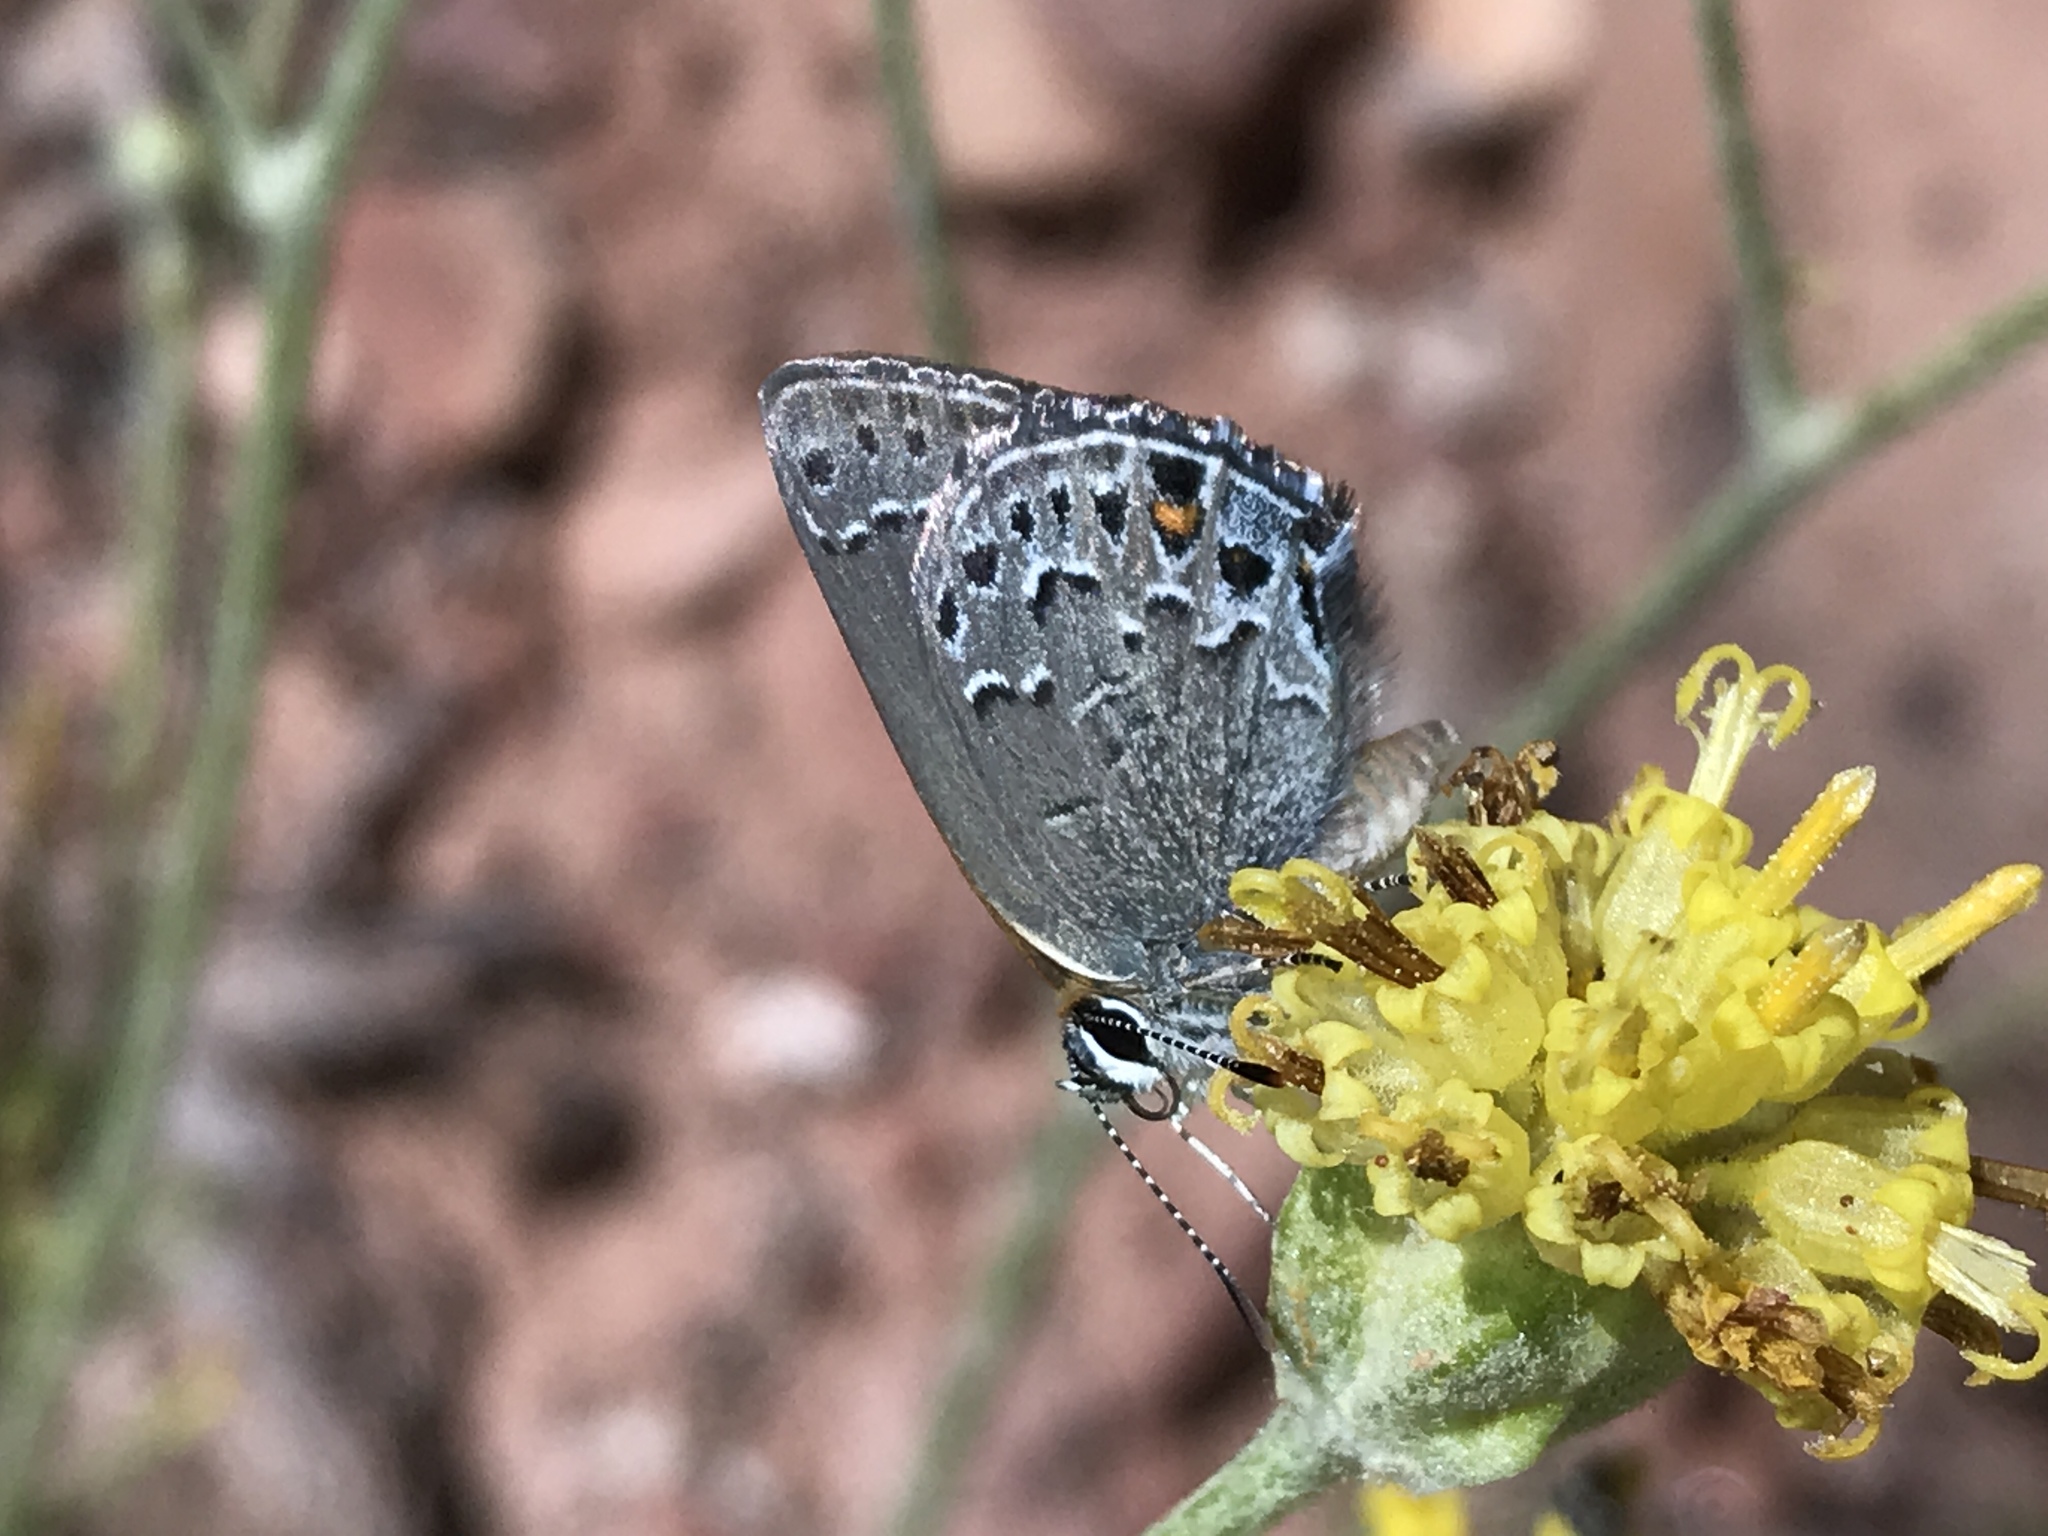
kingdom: Animalia
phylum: Arthropoda
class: Insecta
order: Lepidoptera
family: Lycaenidae
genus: Satyrium
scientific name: Satyrium behrii
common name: Behr's hairstreak
